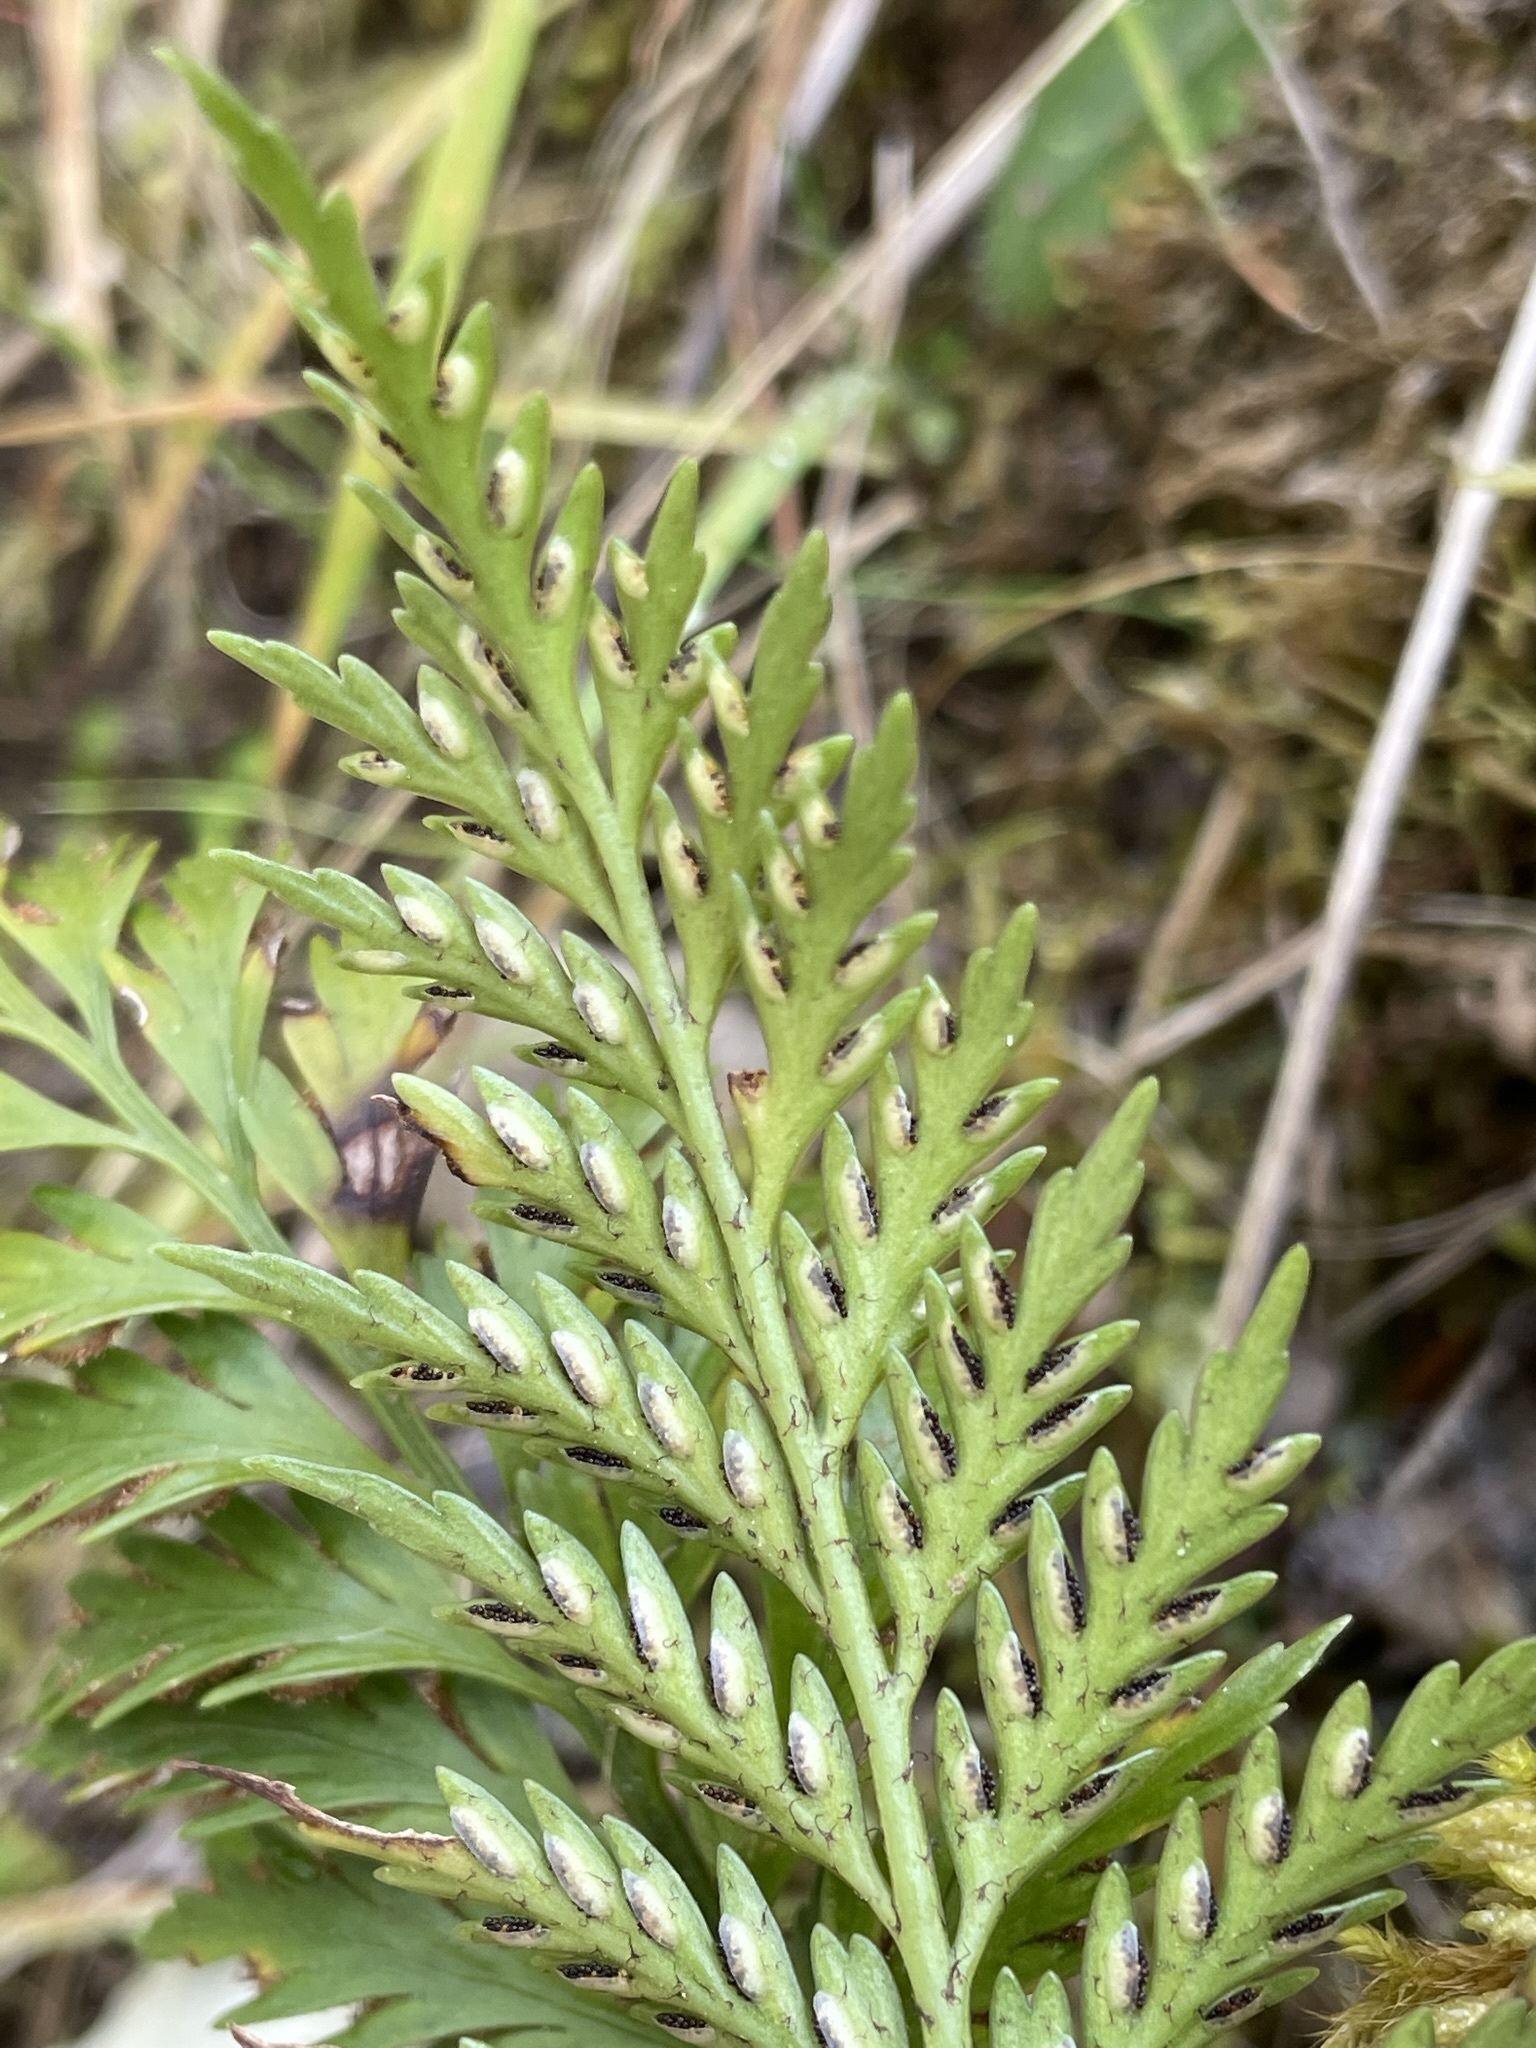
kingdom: Plantae
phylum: Tracheophyta
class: Polypodiopsida
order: Polypodiales
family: Aspleniaceae
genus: Asplenium
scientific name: Asplenium appendiculatum
